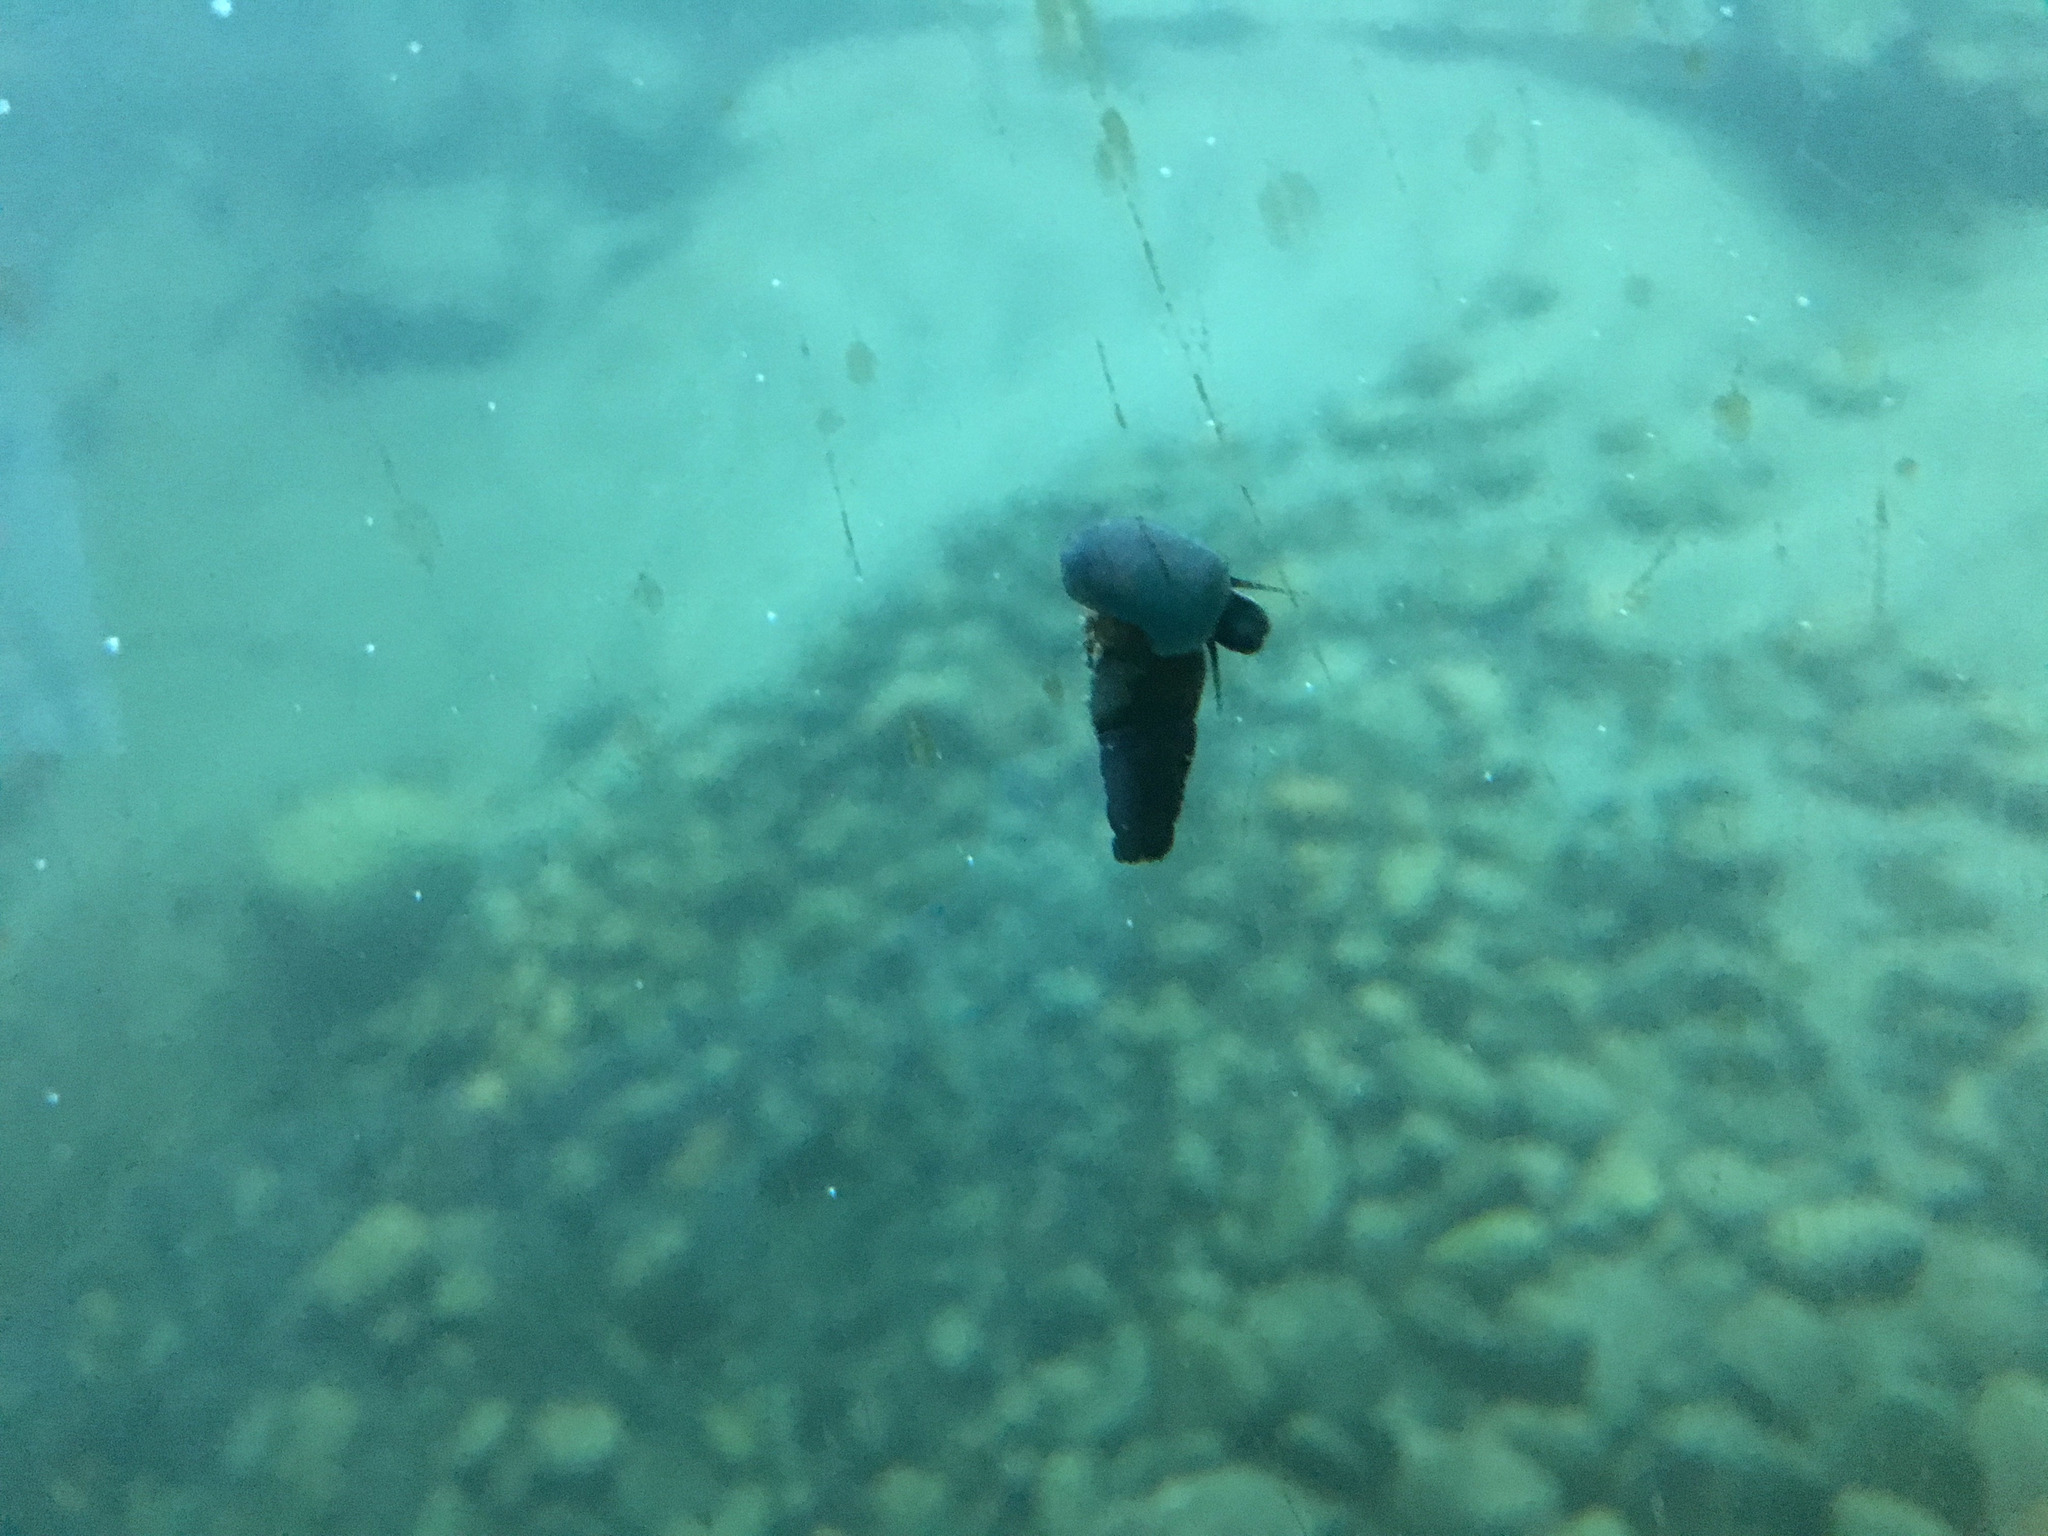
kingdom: Animalia
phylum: Mollusca
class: Gastropoda
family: Semisulcospiridae
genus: Juga
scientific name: Juga plicifera
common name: Pleated juga
